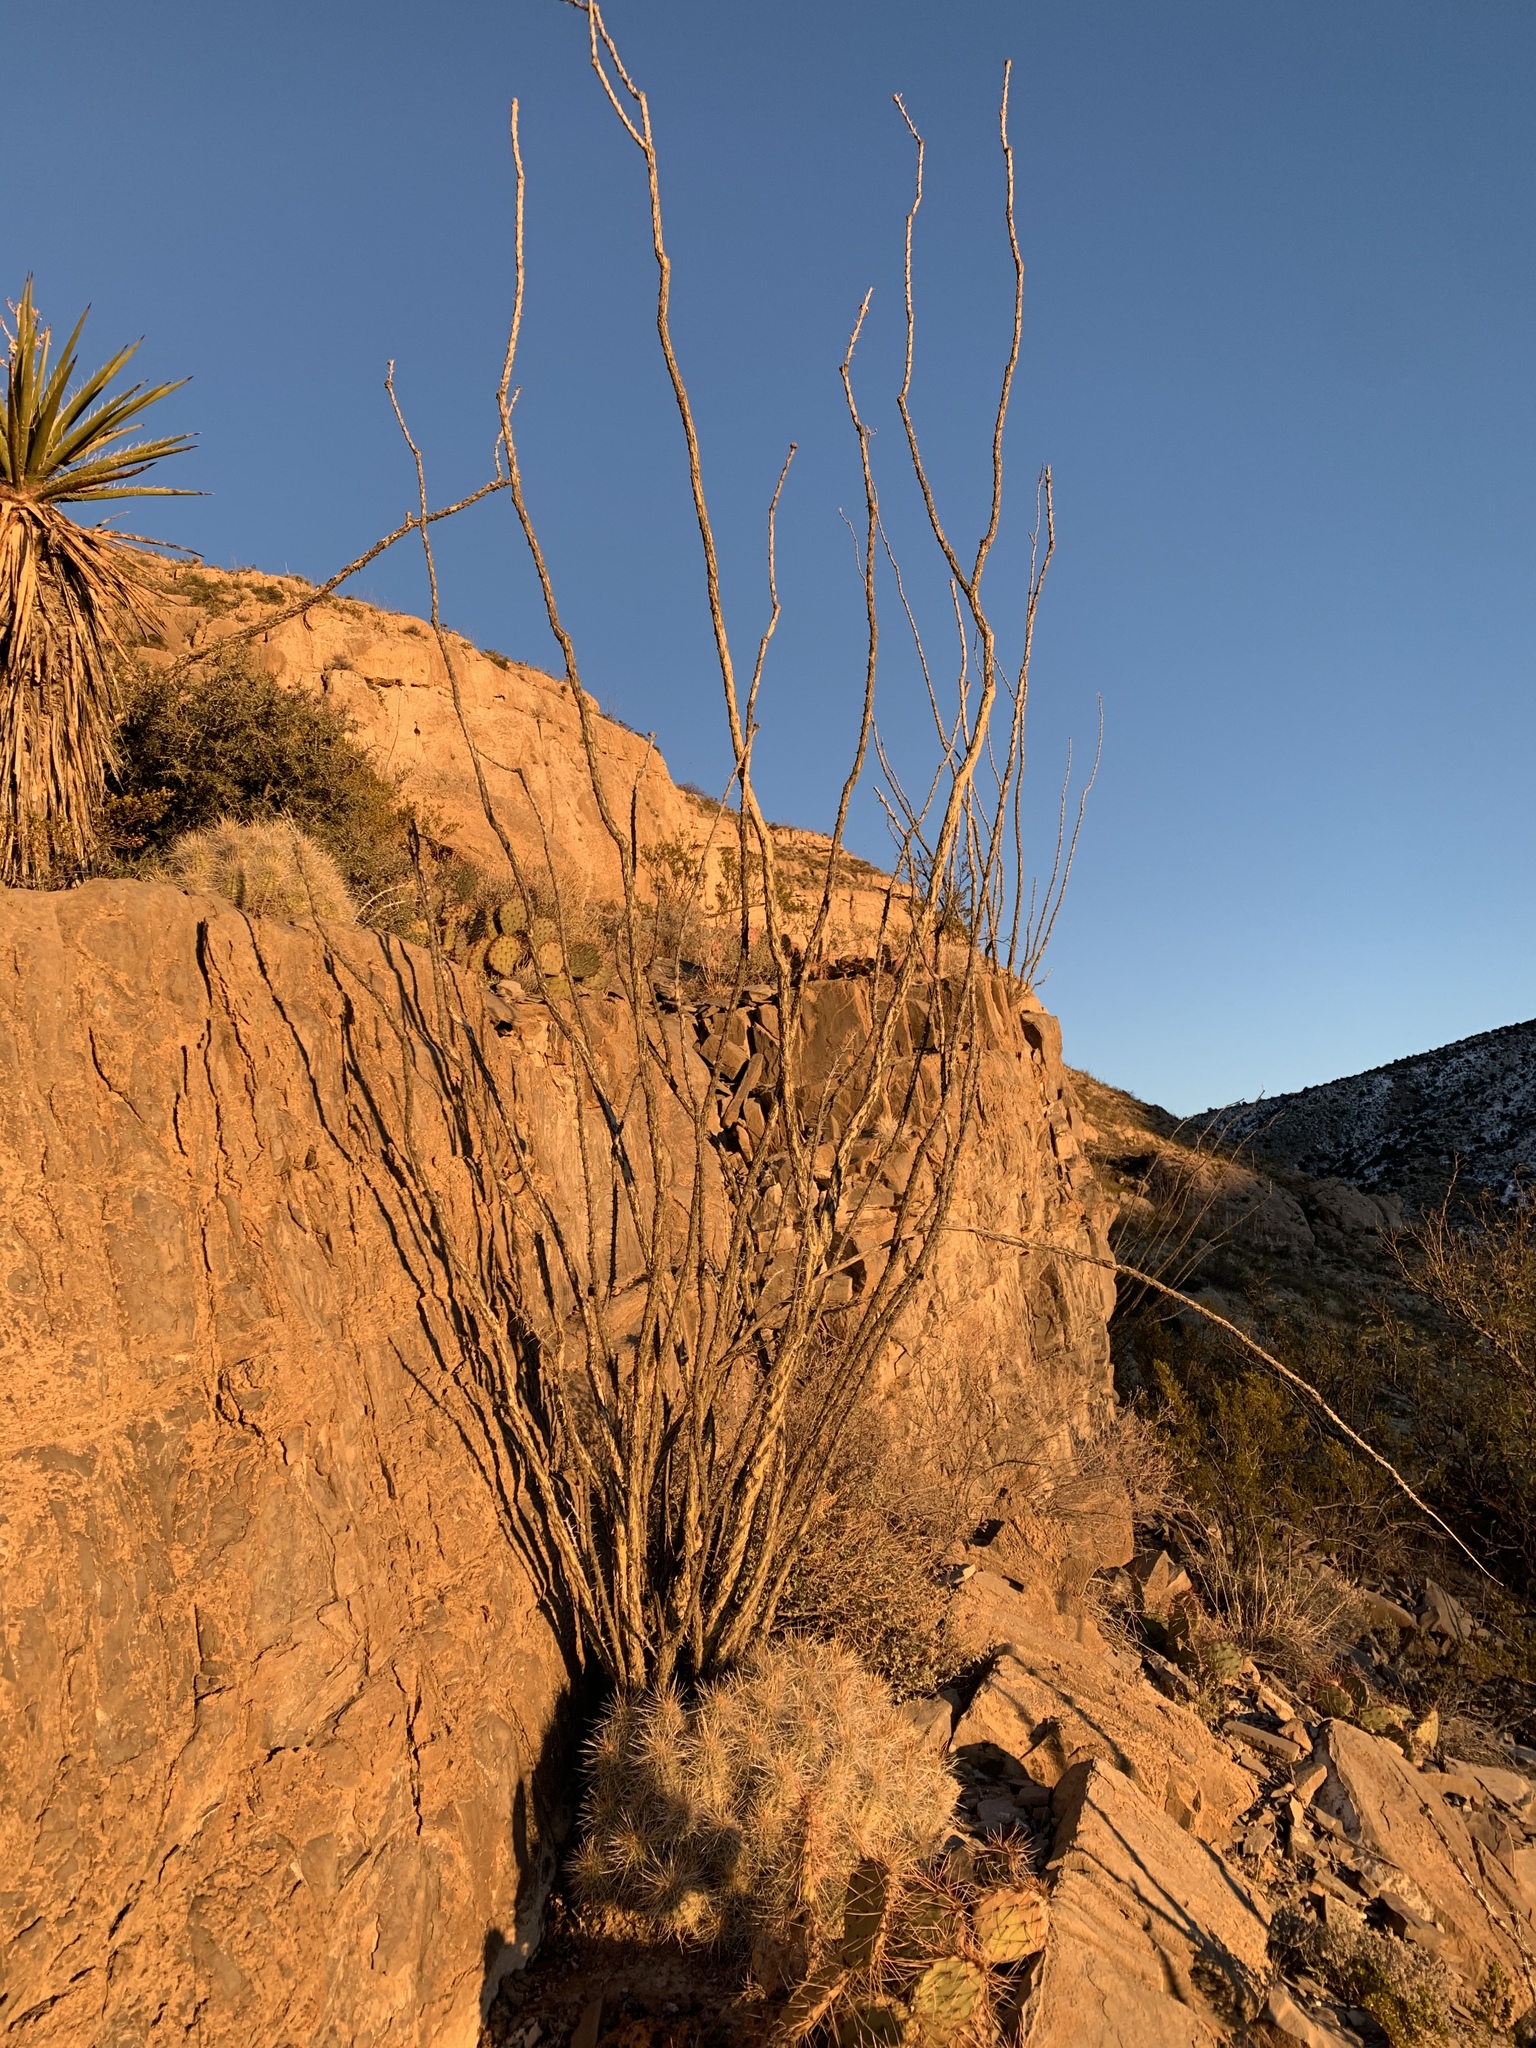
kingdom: Plantae
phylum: Tracheophyta
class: Magnoliopsida
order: Ericales
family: Fouquieriaceae
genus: Fouquieria
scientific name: Fouquieria splendens
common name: Vine-cactus
